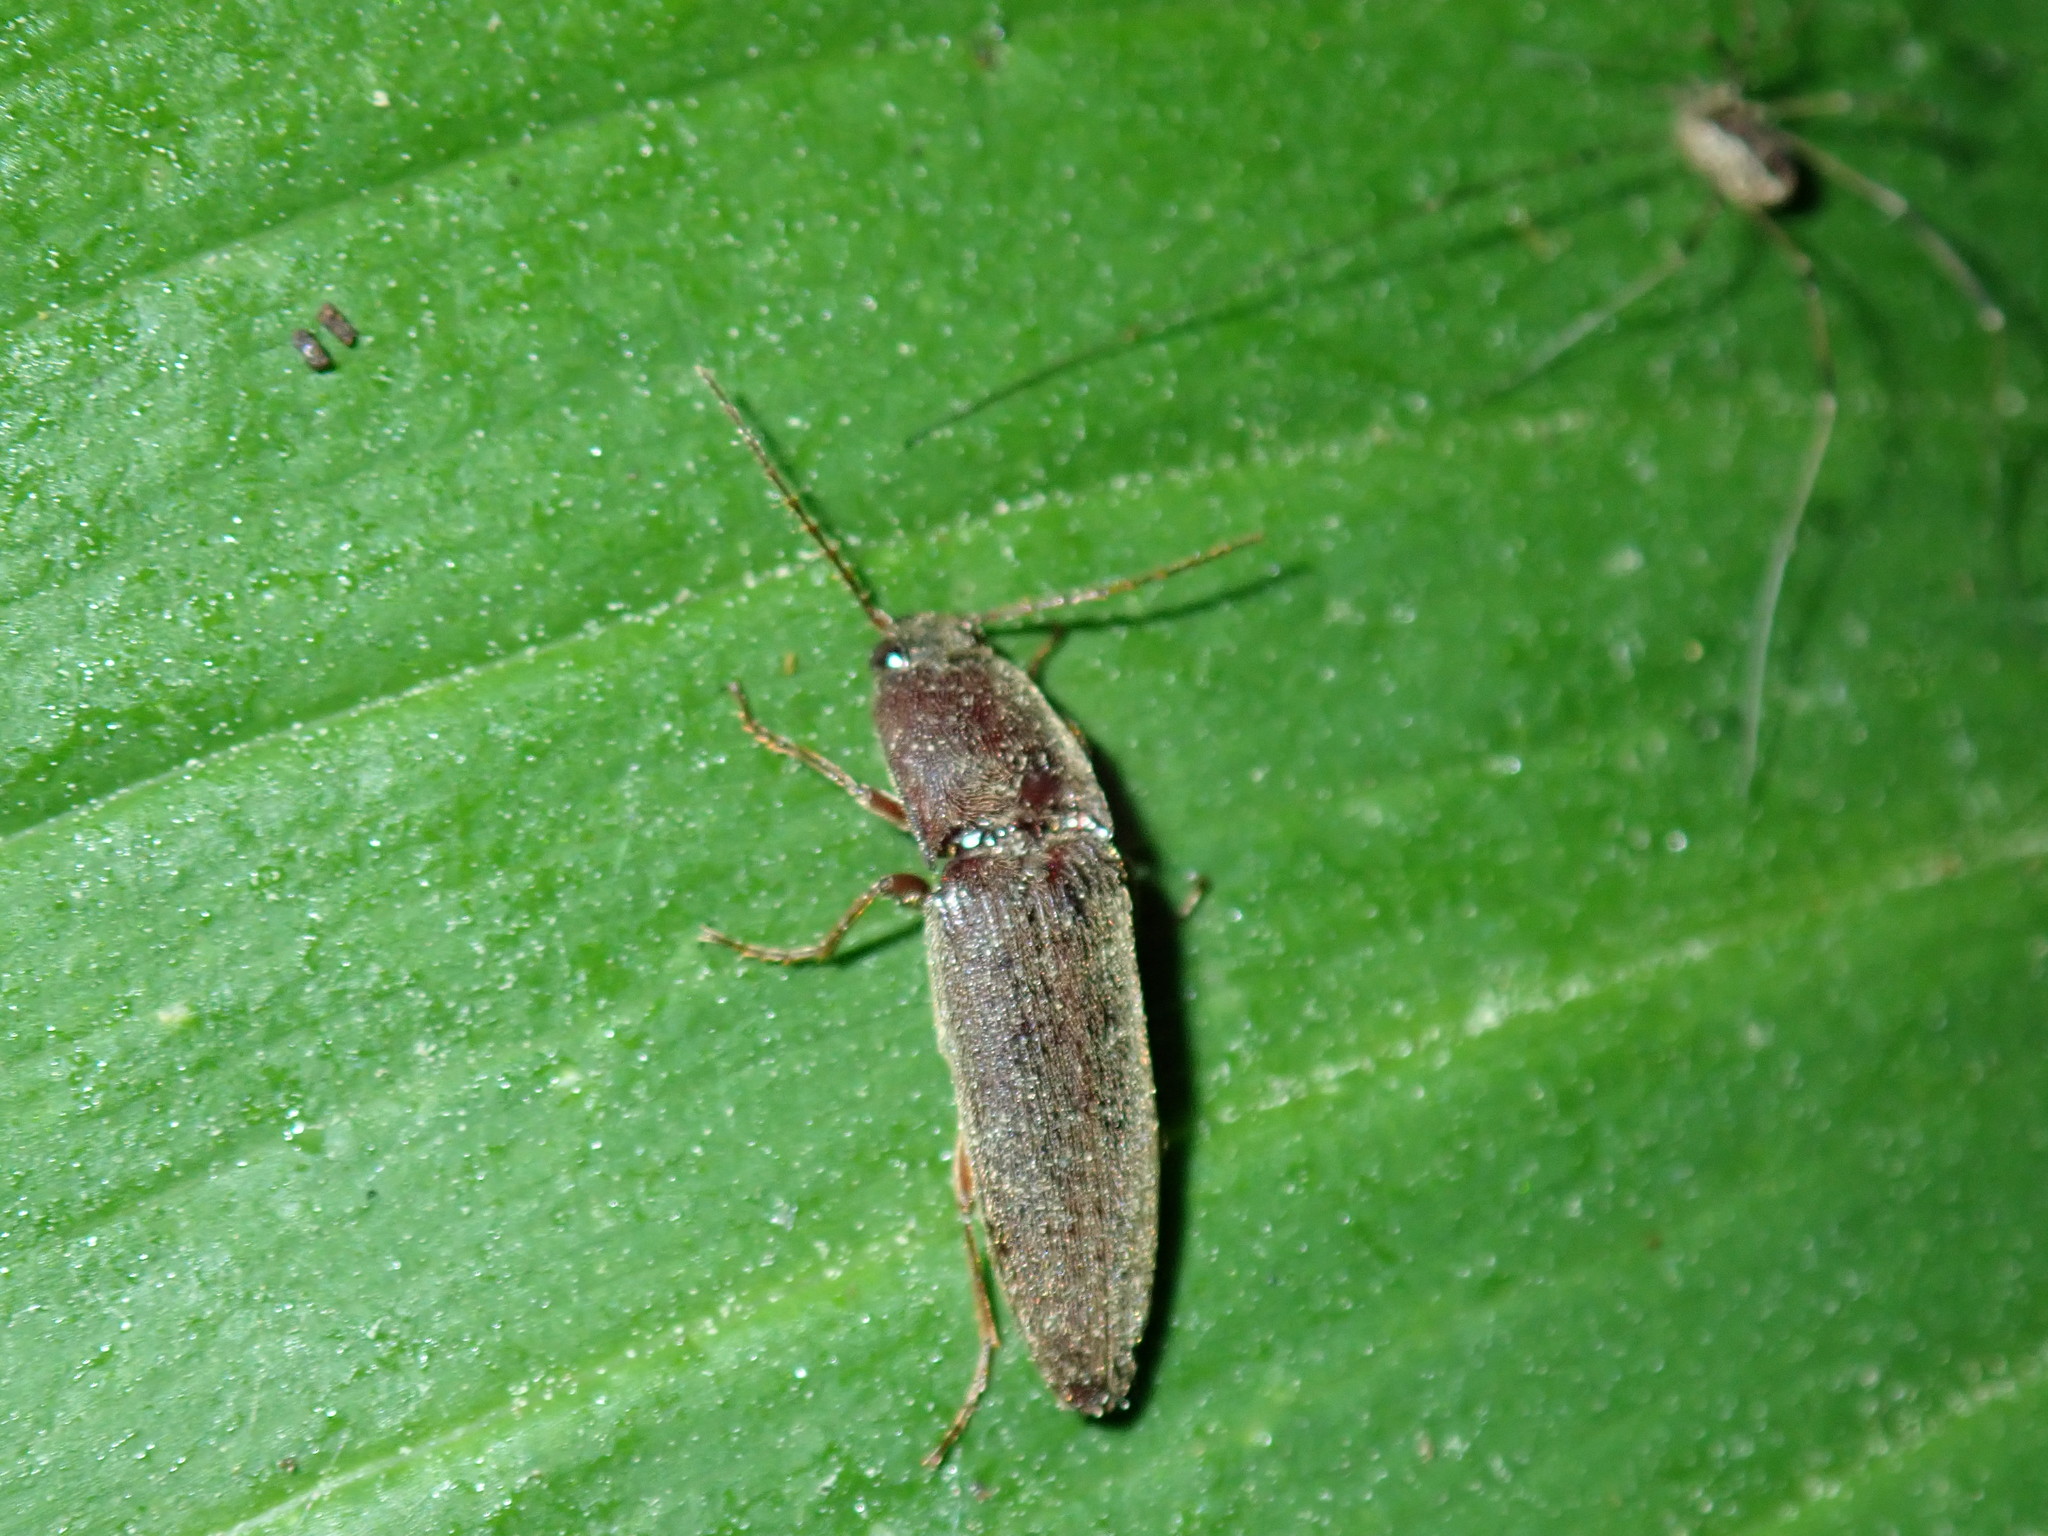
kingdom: Animalia
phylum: Arthropoda
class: Insecta
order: Coleoptera
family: Elateridae
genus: Melanotus
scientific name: Melanotus
